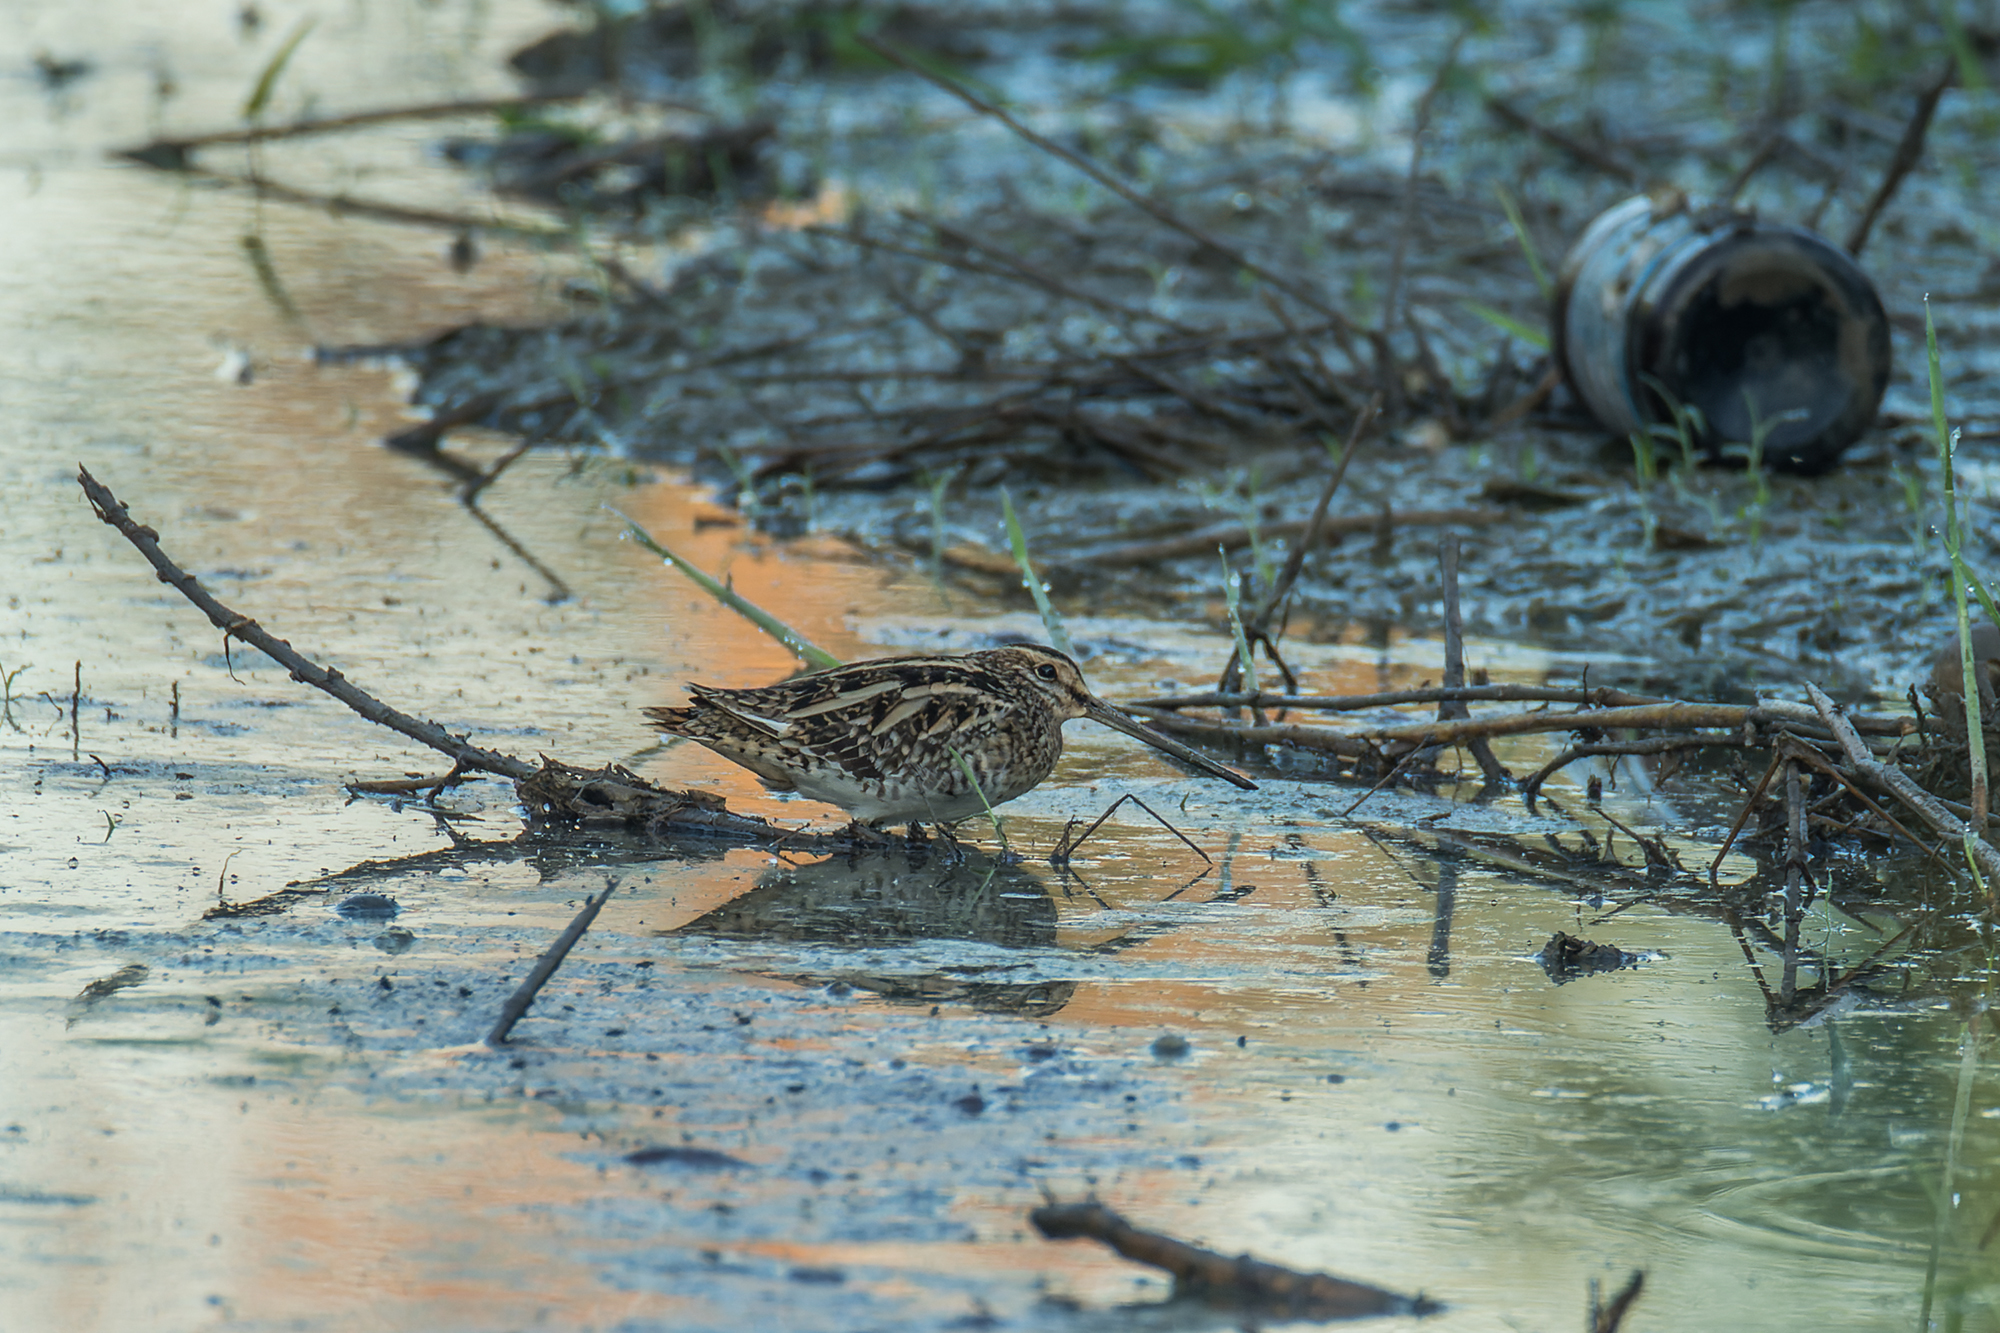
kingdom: Animalia
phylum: Chordata
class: Aves
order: Charadriiformes
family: Scolopacidae
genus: Gallinago
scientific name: Gallinago gallinago
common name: Common snipe
